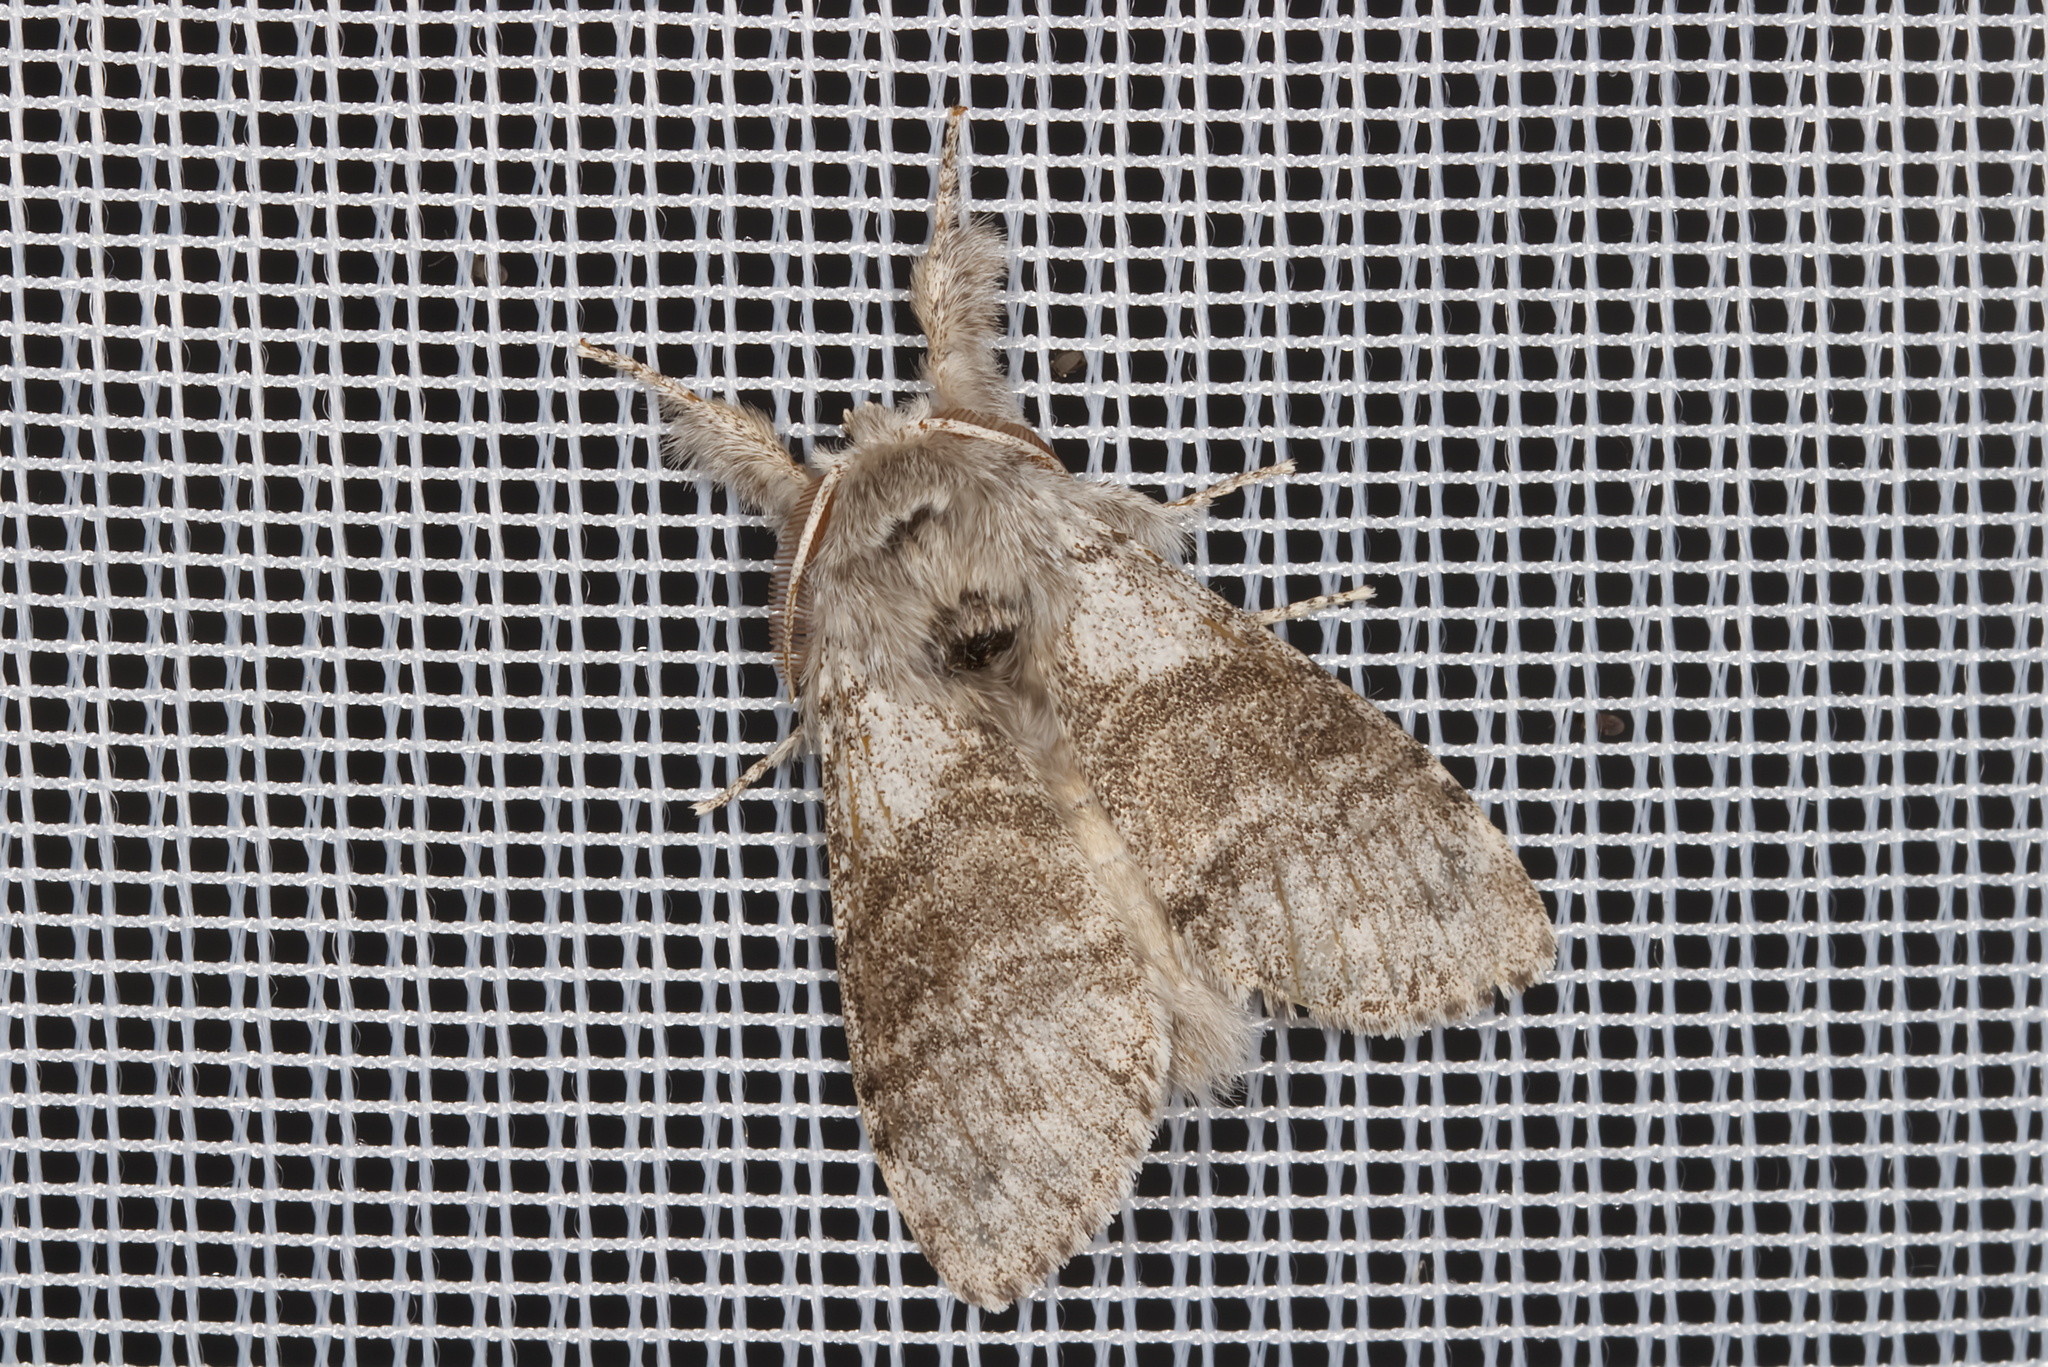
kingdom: Animalia
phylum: Arthropoda
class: Insecta
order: Lepidoptera
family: Erebidae
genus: Calliteara
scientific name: Calliteara pudibunda
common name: Pale tussock
